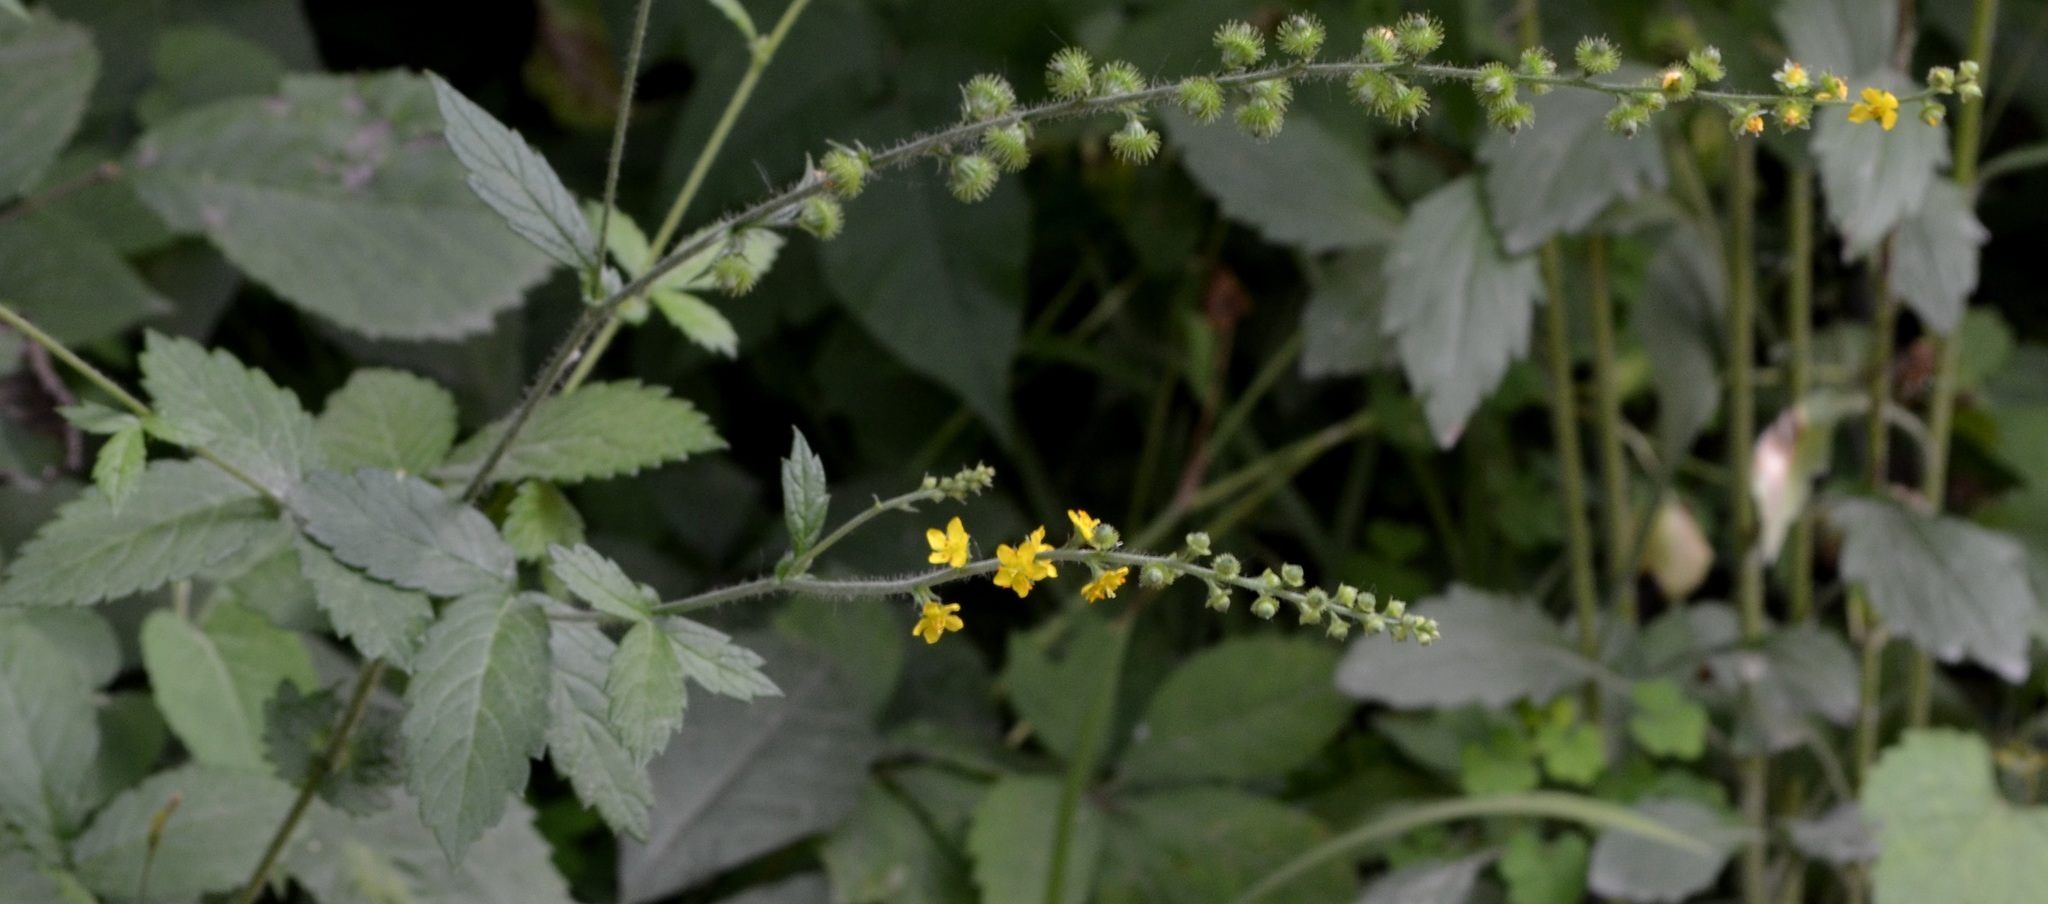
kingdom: Plantae
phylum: Tracheophyta
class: Magnoliopsida
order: Rosales
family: Rosaceae
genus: Agrimonia
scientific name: Agrimonia gryposepala
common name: Common agrimony
